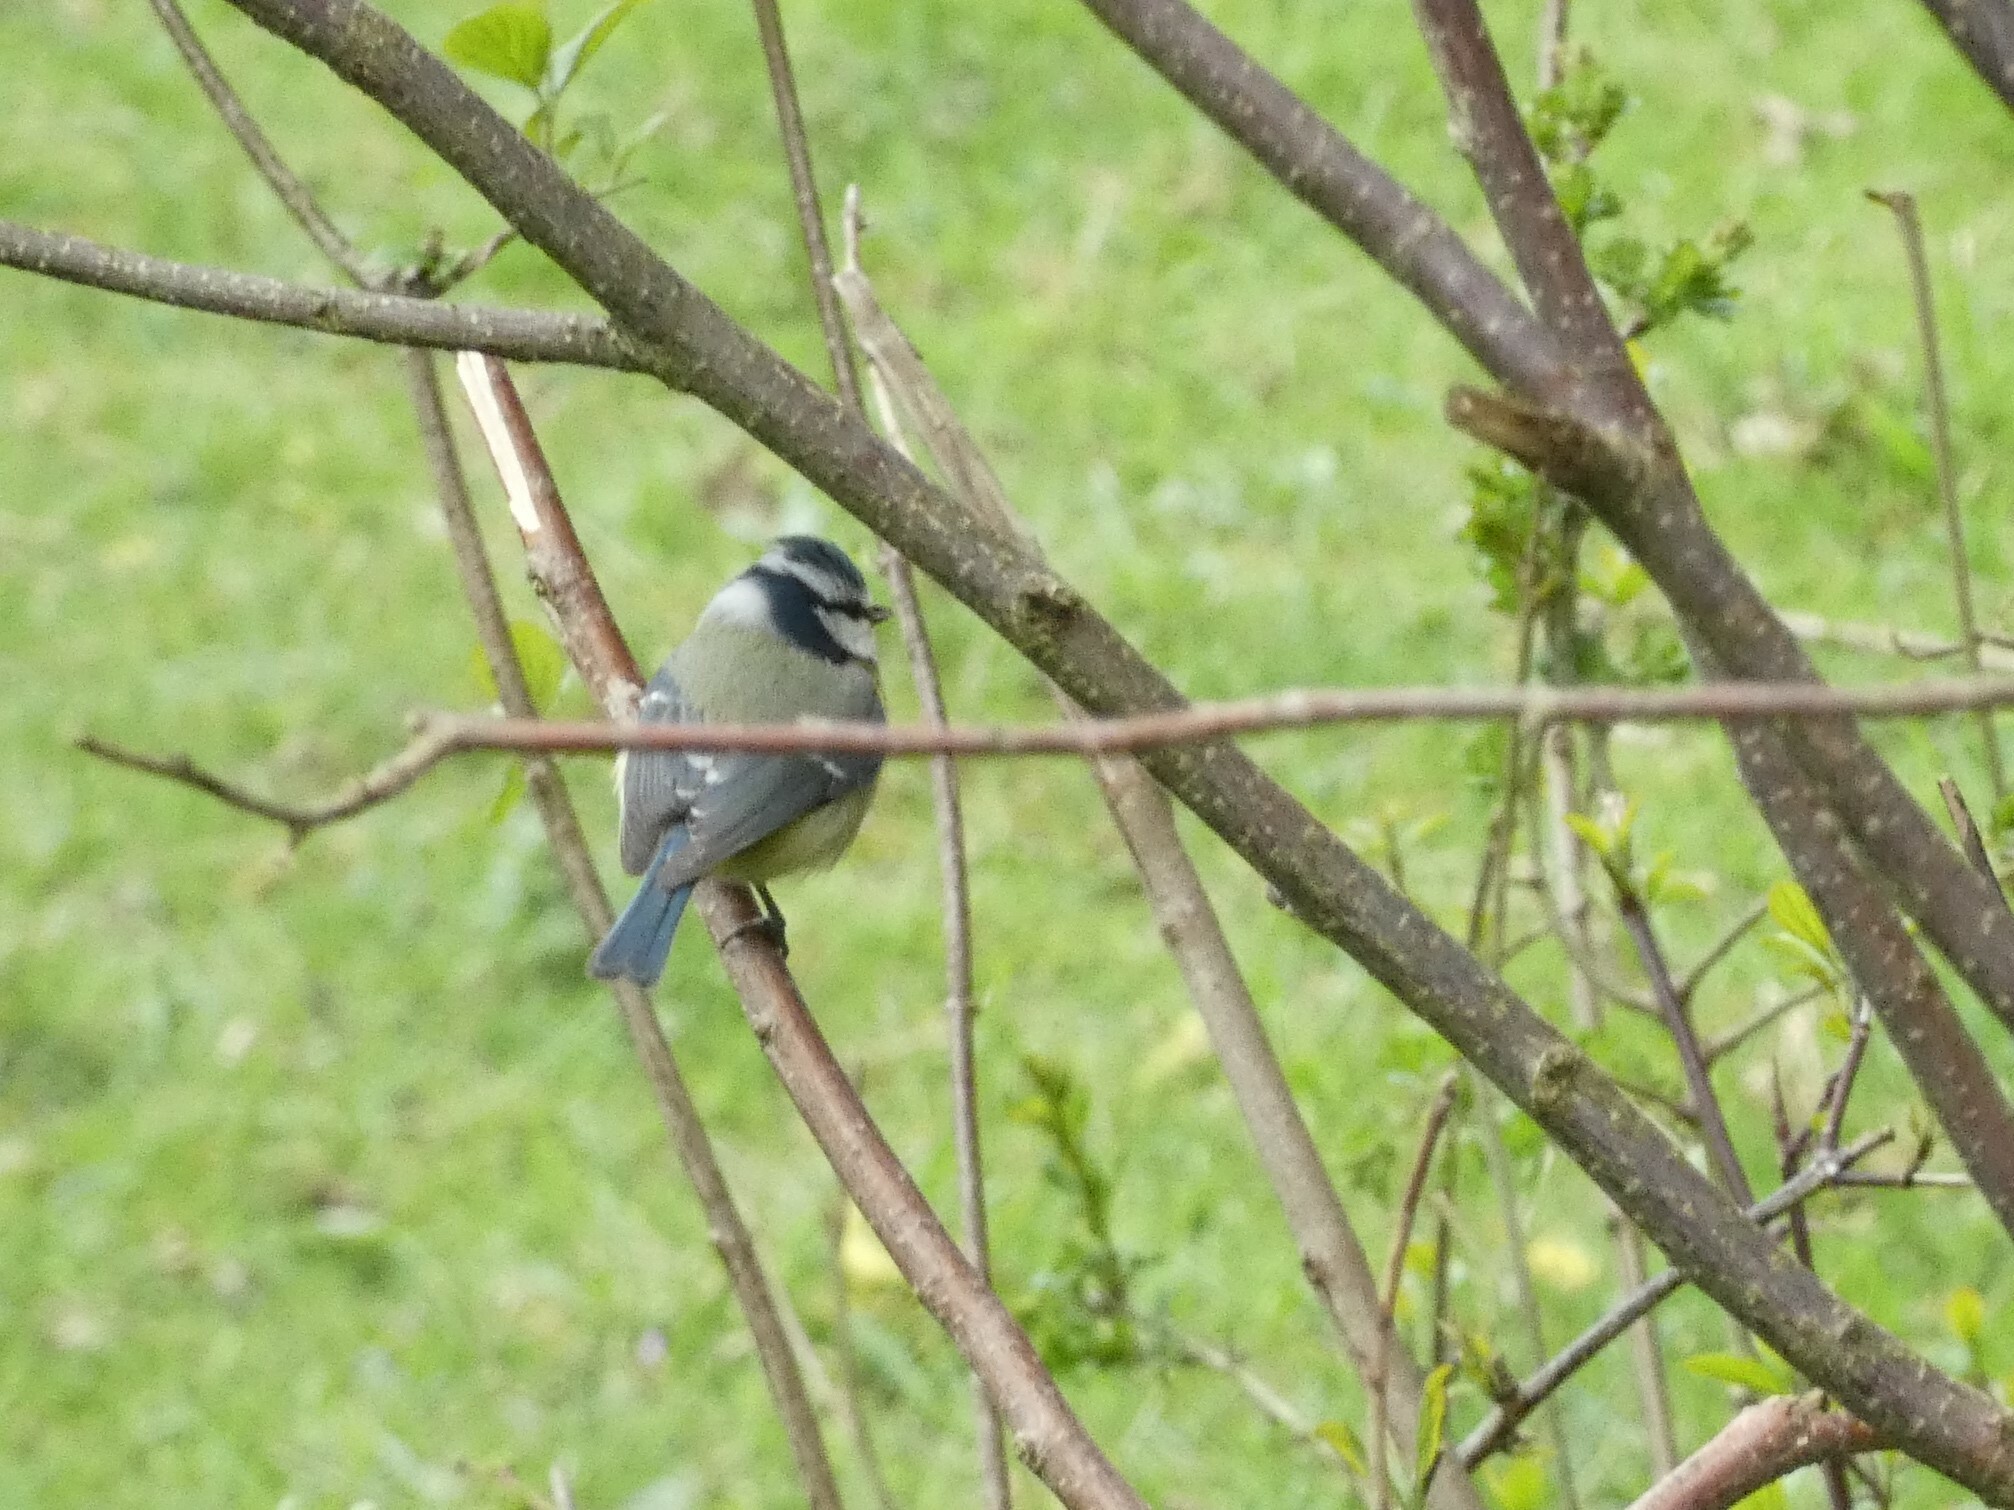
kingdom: Animalia
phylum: Chordata
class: Aves
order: Passeriformes
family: Paridae
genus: Cyanistes
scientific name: Cyanistes caeruleus
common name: Eurasian blue tit
